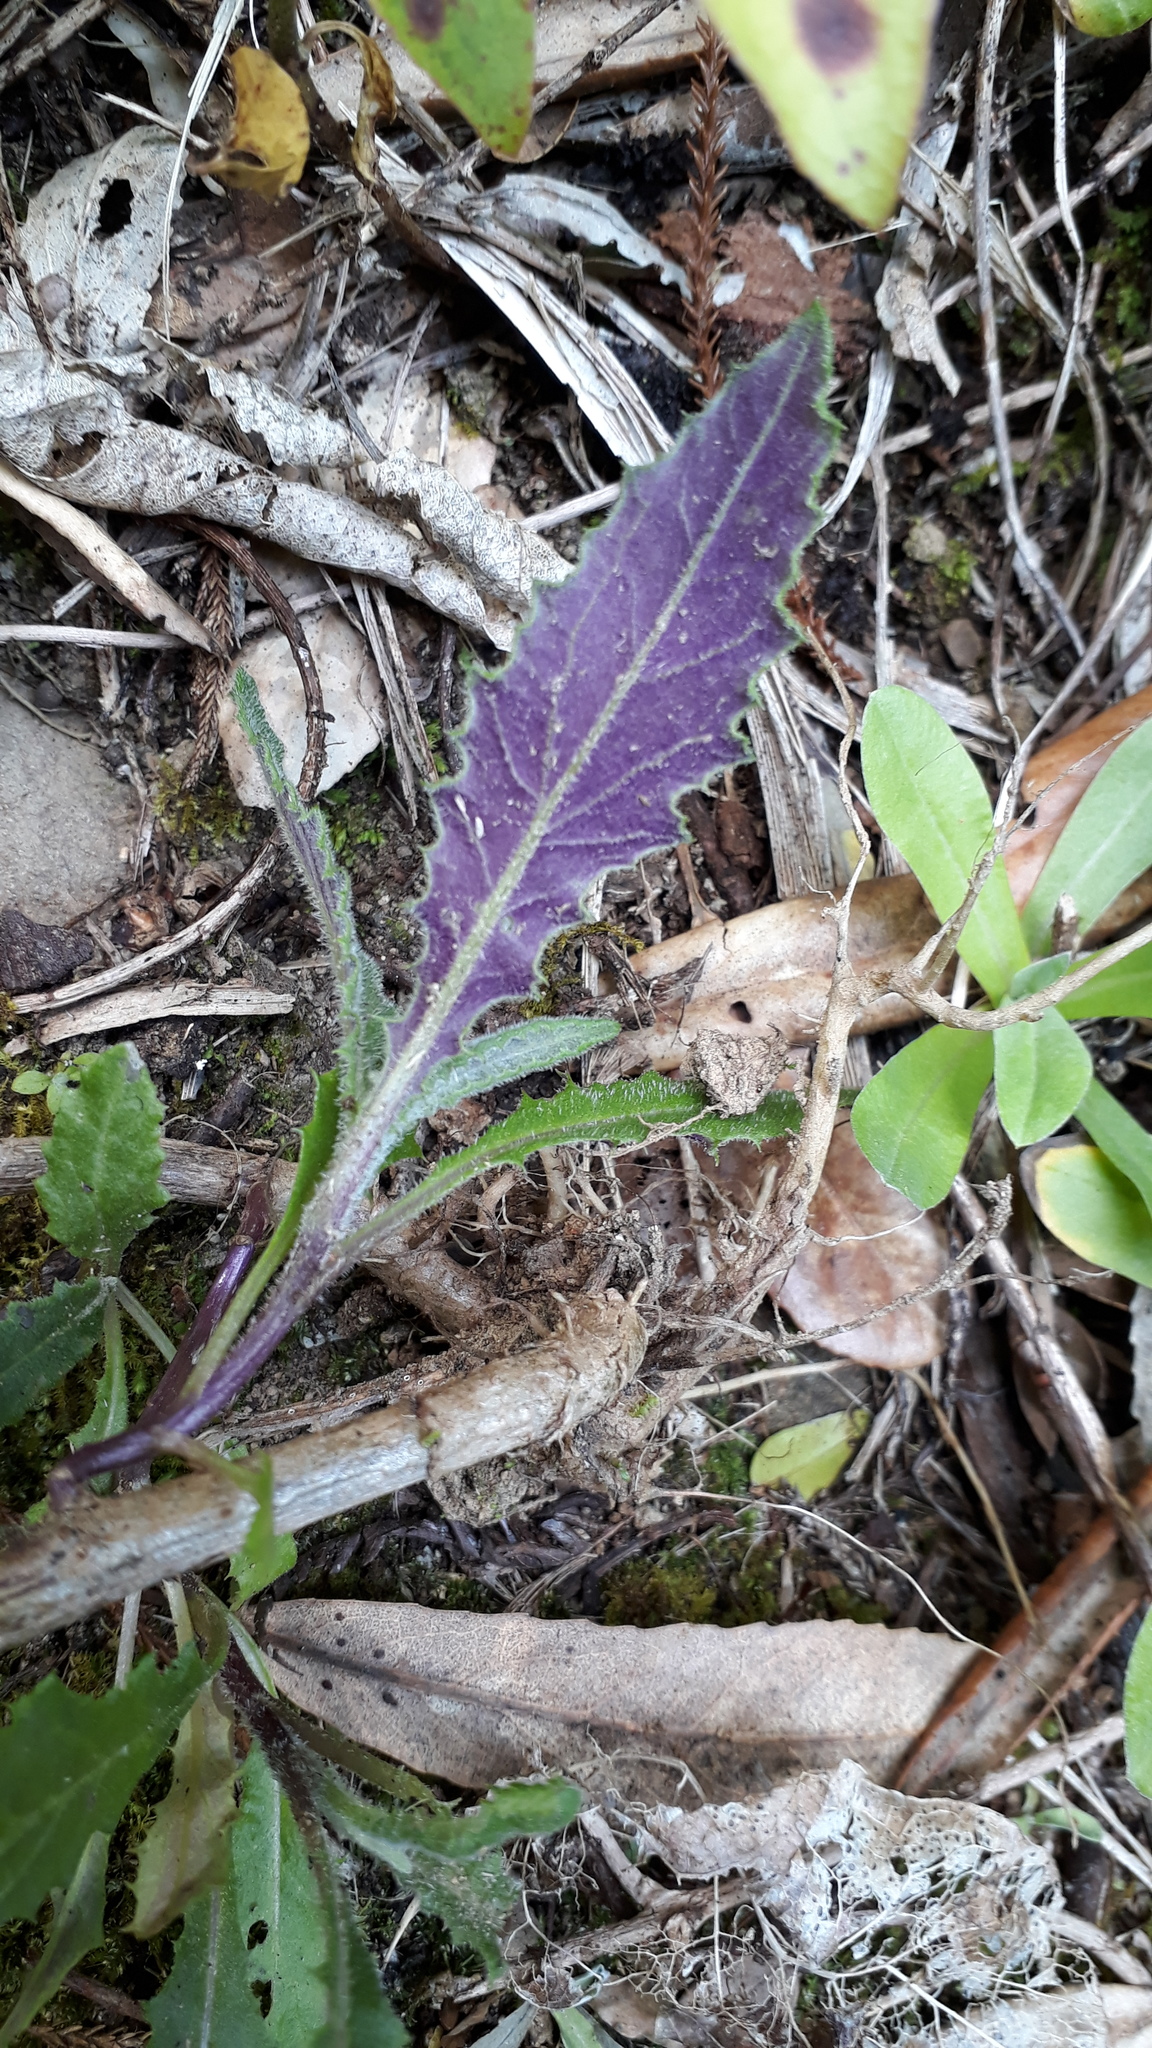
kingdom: Plantae
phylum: Tracheophyta
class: Magnoliopsida
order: Asterales
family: Asteraceae
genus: Senecio
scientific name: Senecio minimus
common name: Toothed fireweed
